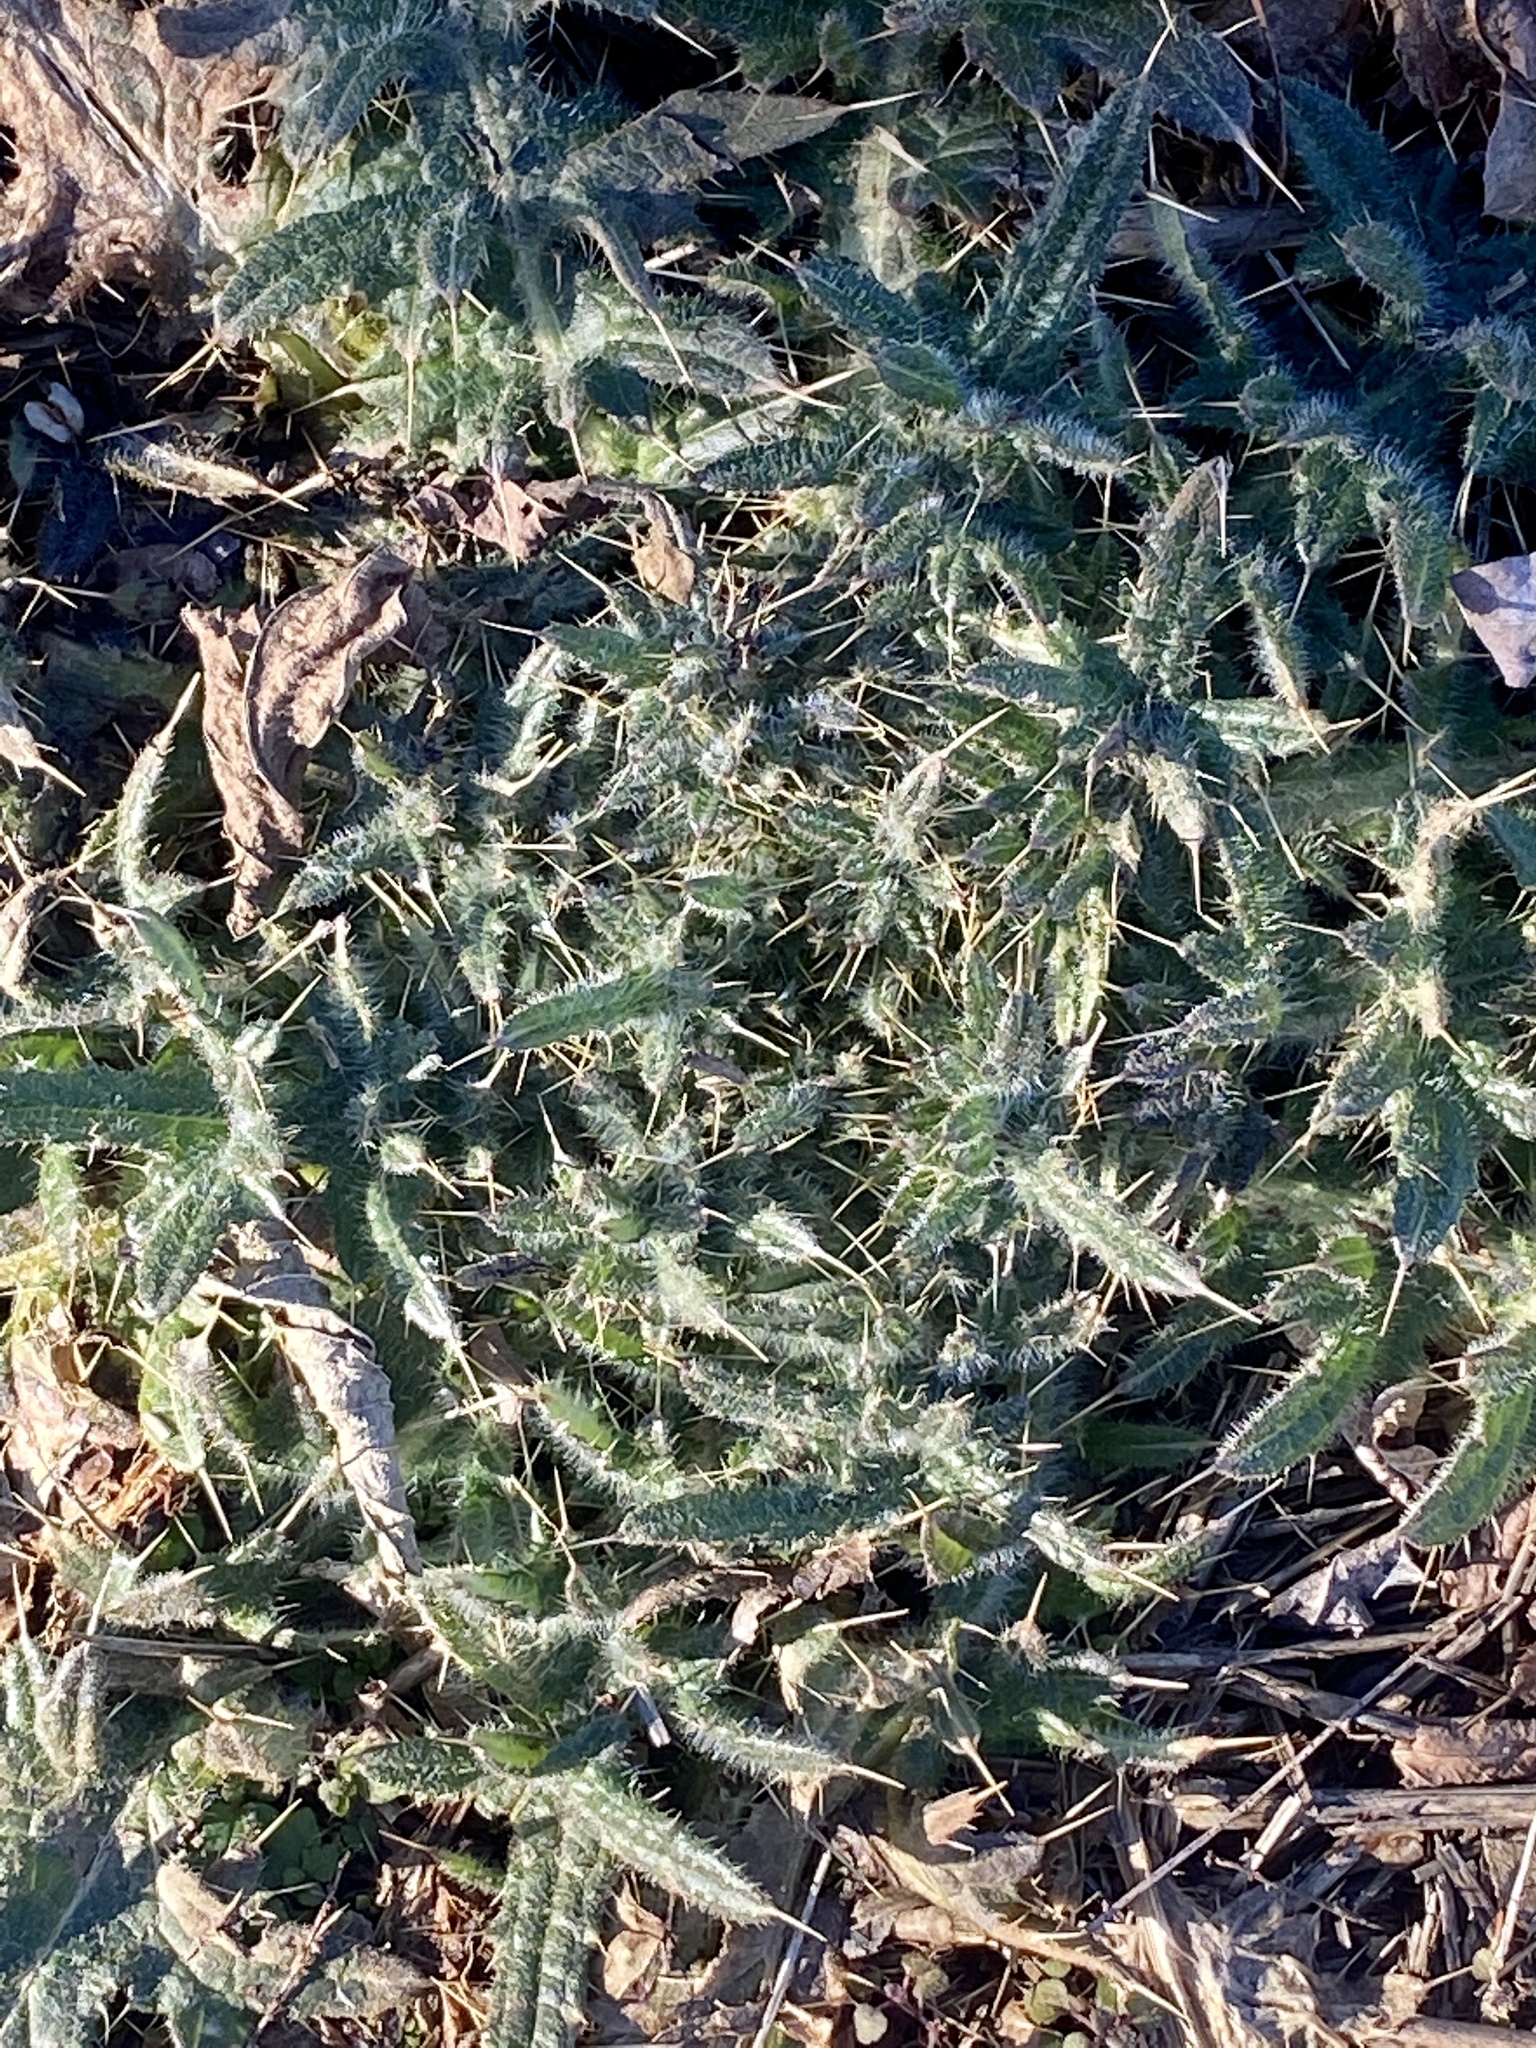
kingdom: Plantae
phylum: Tracheophyta
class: Magnoliopsida
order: Asterales
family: Asteraceae
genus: Cirsium
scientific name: Cirsium vulgare
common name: Bull thistle
